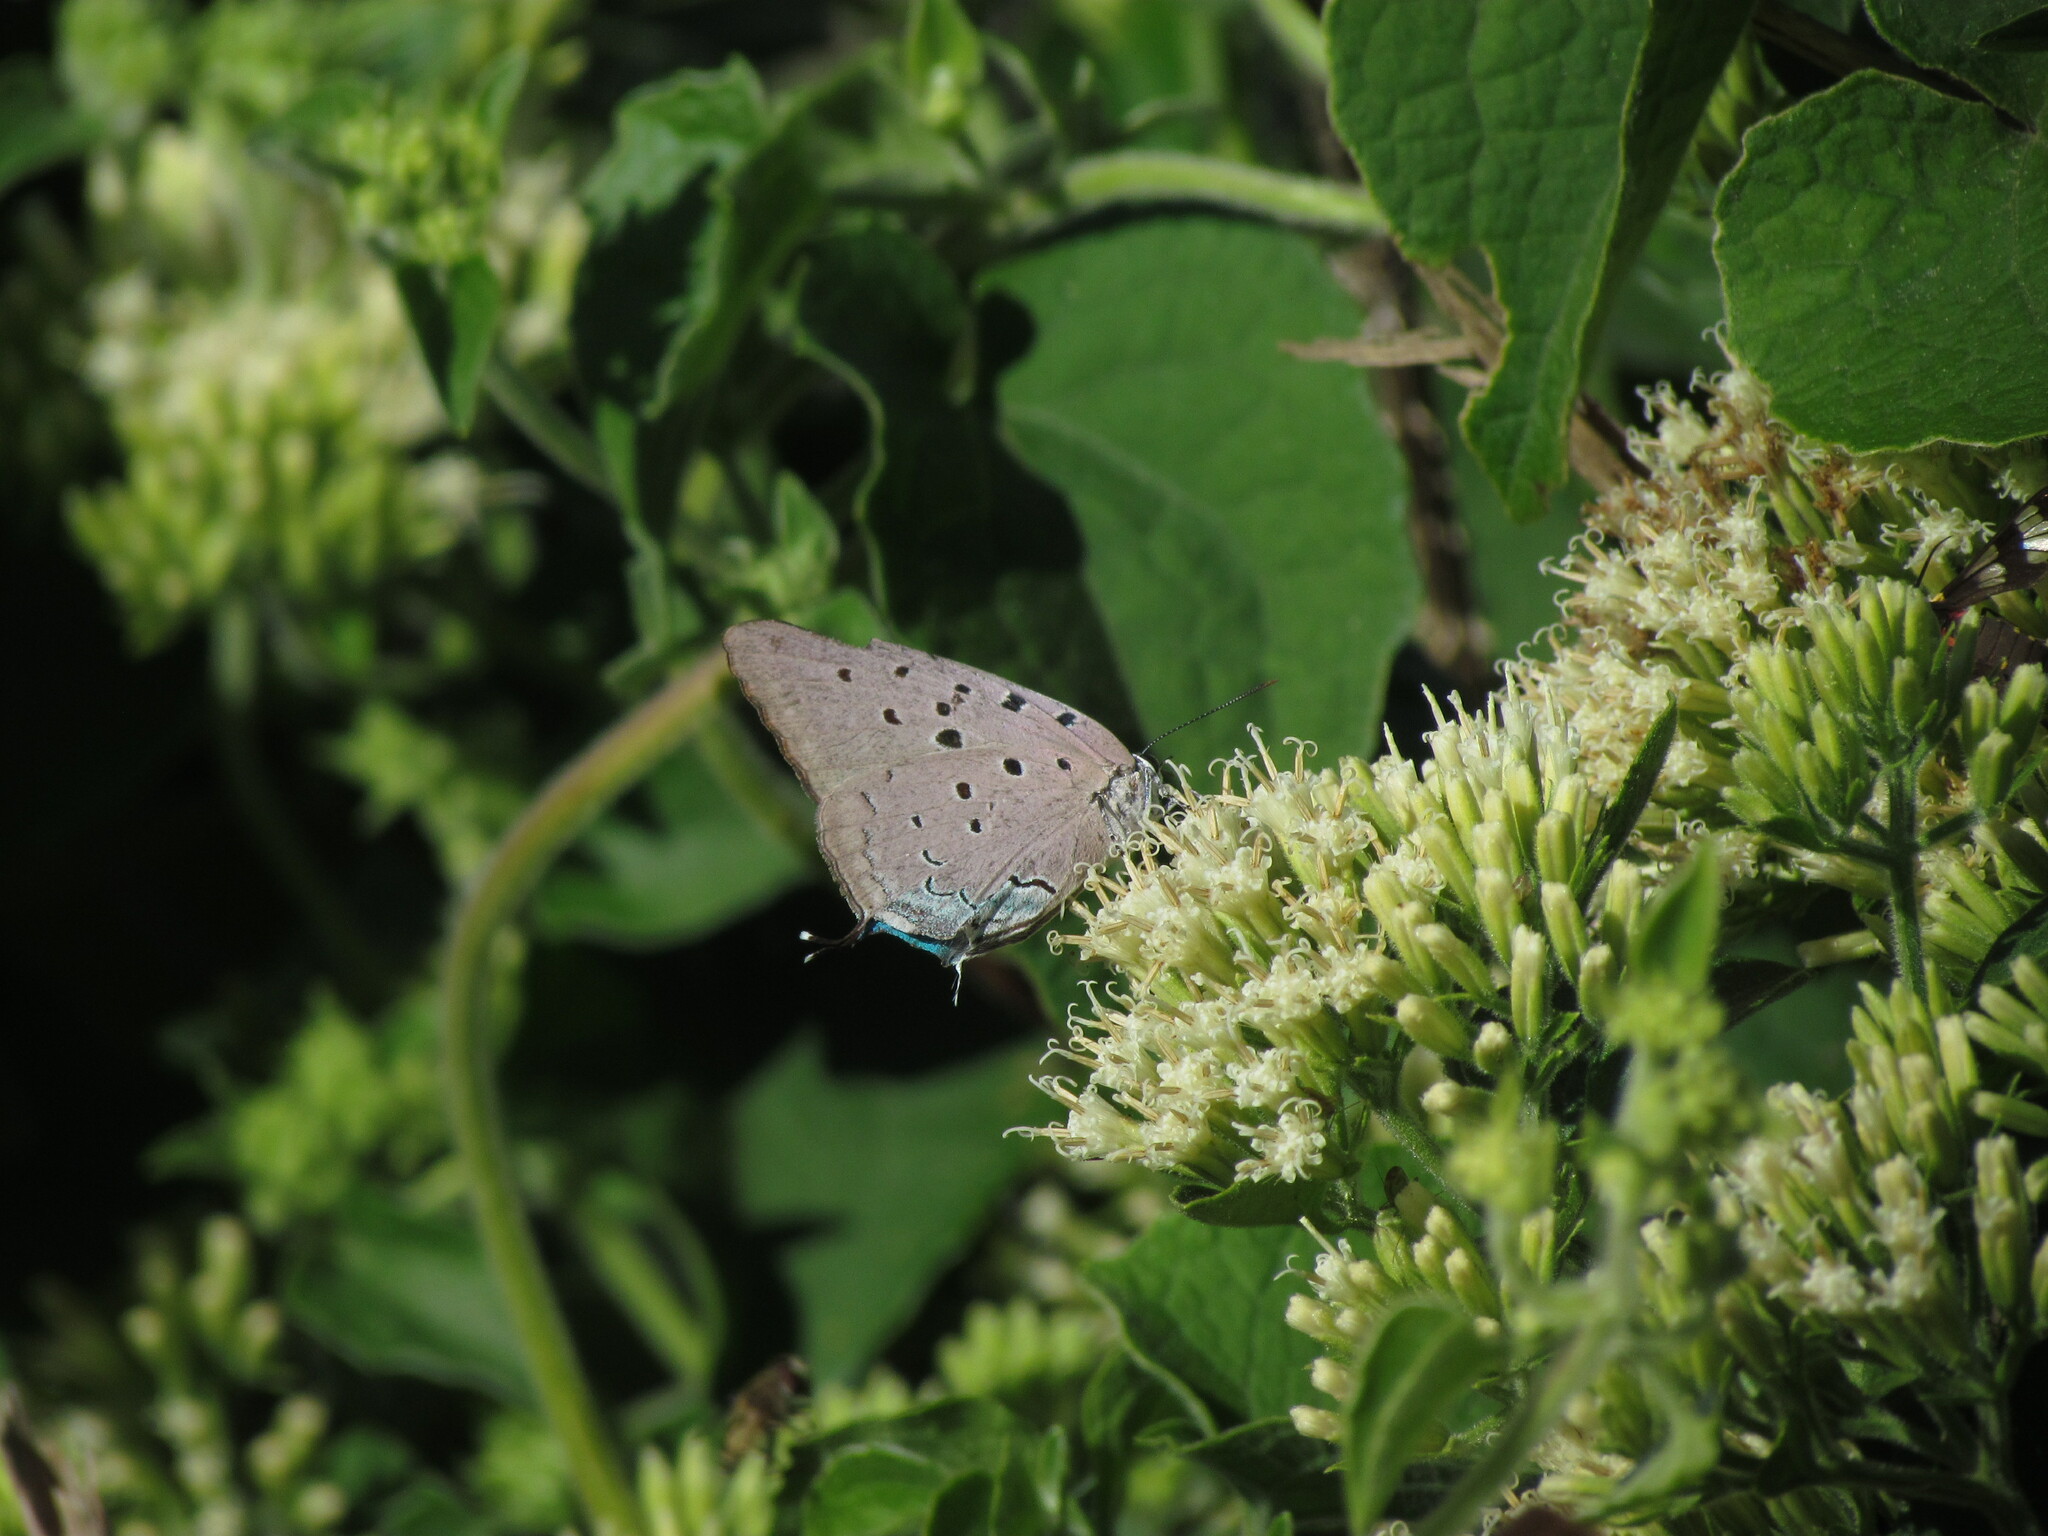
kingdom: Animalia
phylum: Arthropoda
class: Insecta
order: Lepidoptera
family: Lycaenidae
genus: Pseudolycaena
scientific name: Pseudolycaena marsyas
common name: Marsyas hairstreak
